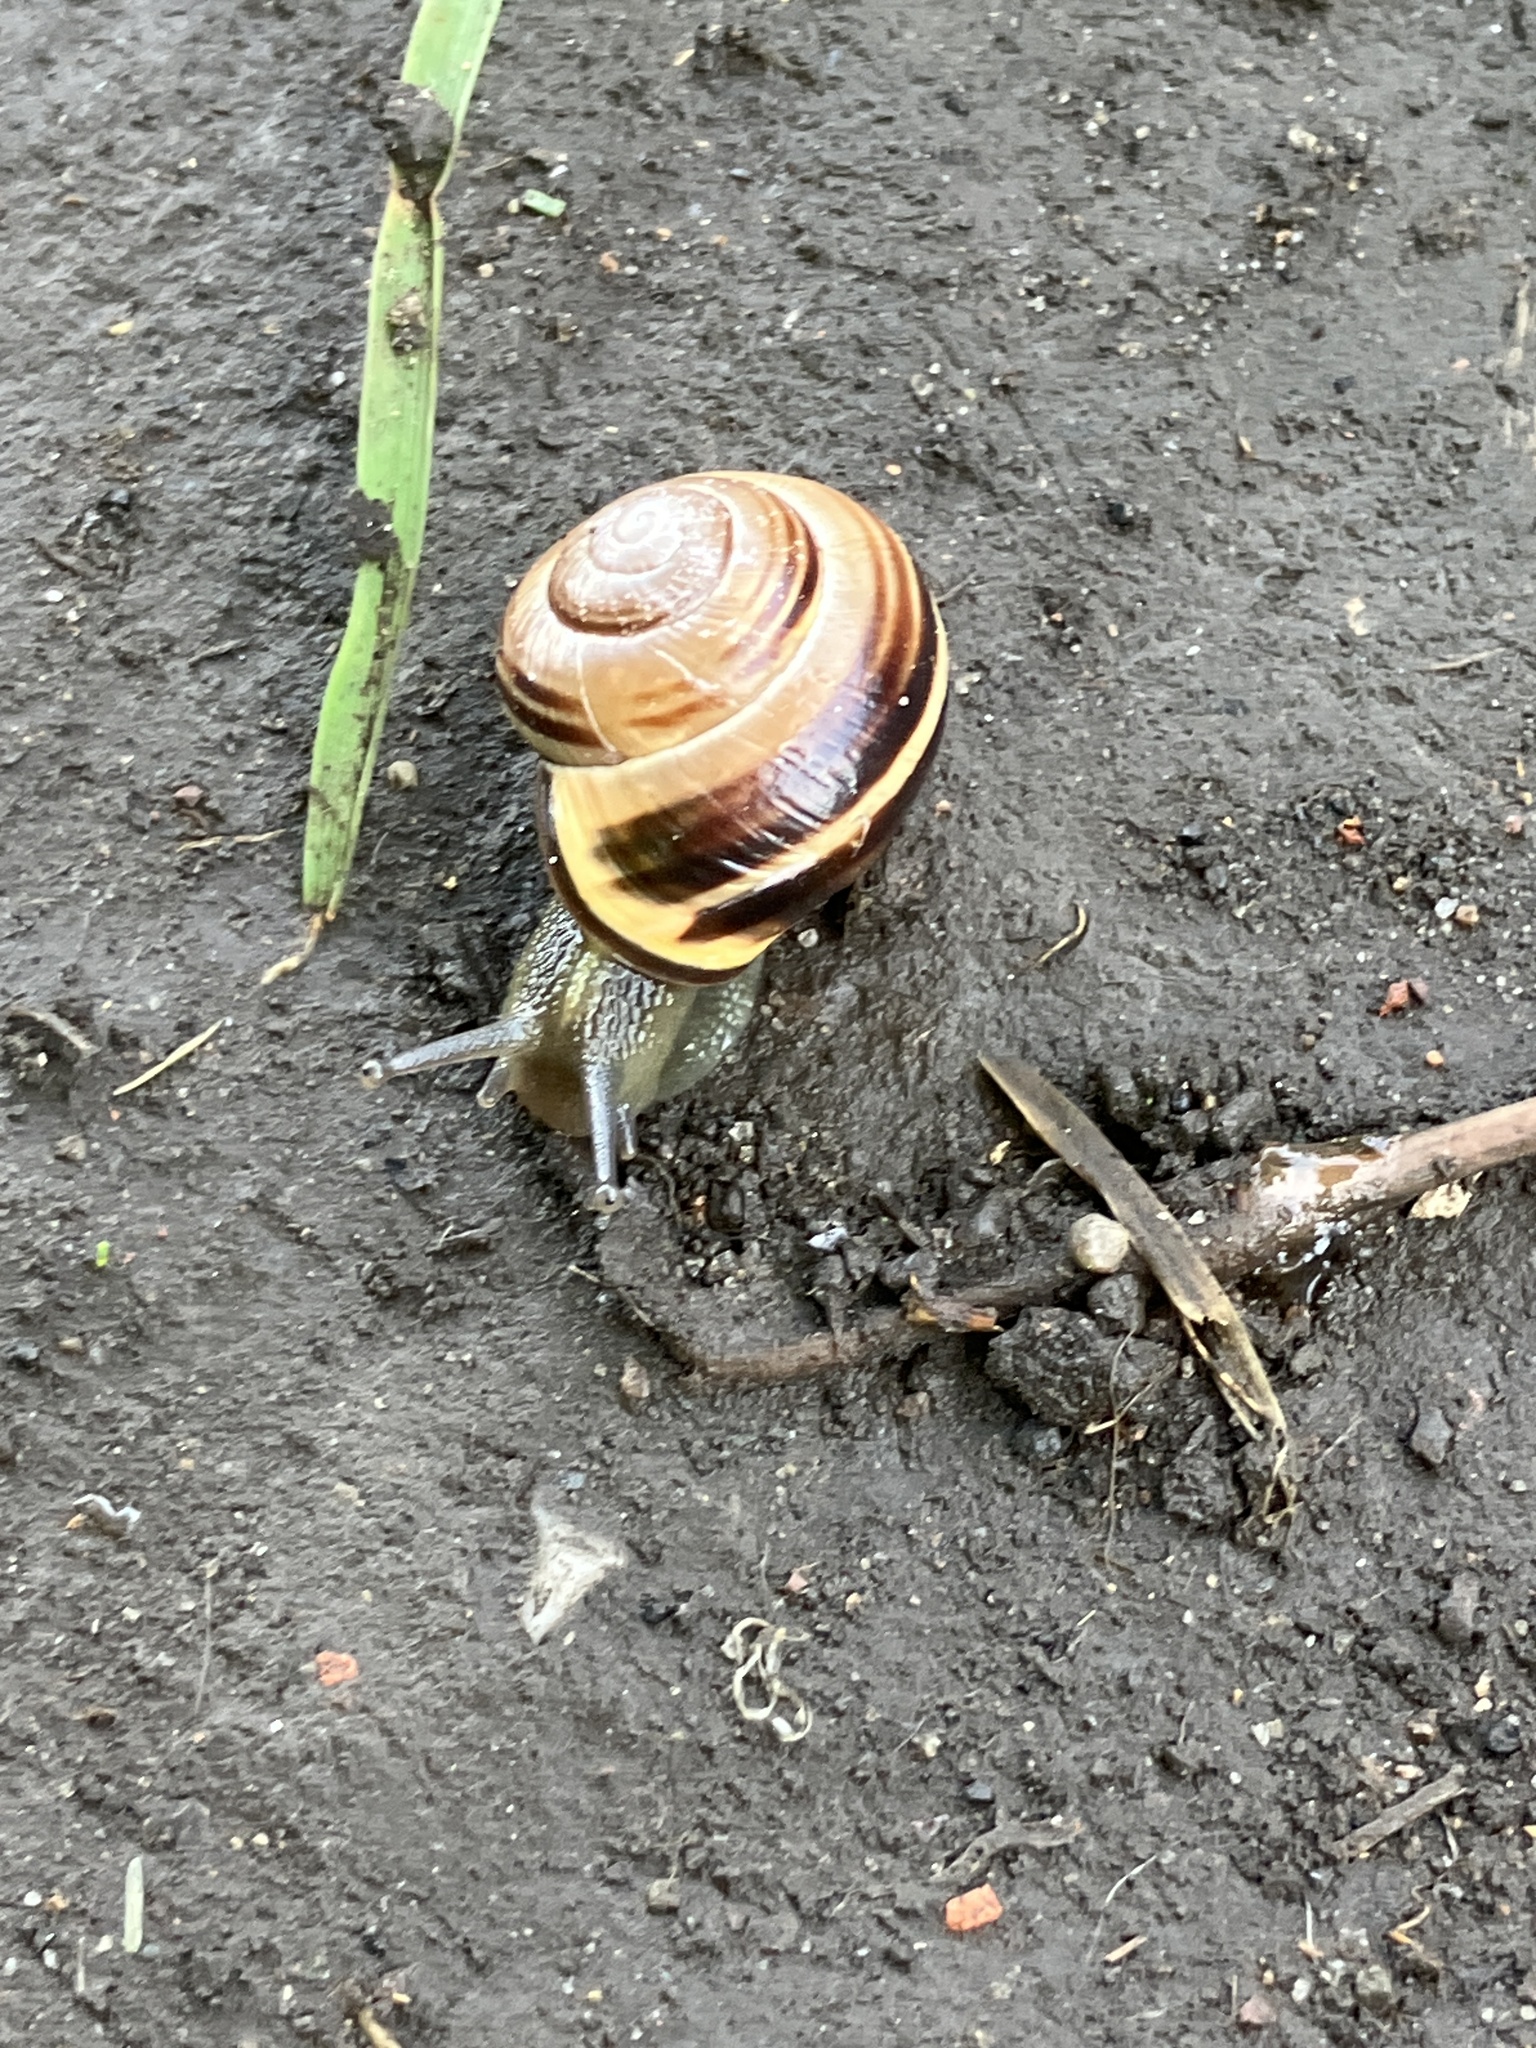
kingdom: Animalia
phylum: Mollusca
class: Gastropoda
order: Stylommatophora
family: Helicidae
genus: Cepaea
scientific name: Cepaea nemoralis
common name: Grovesnail
